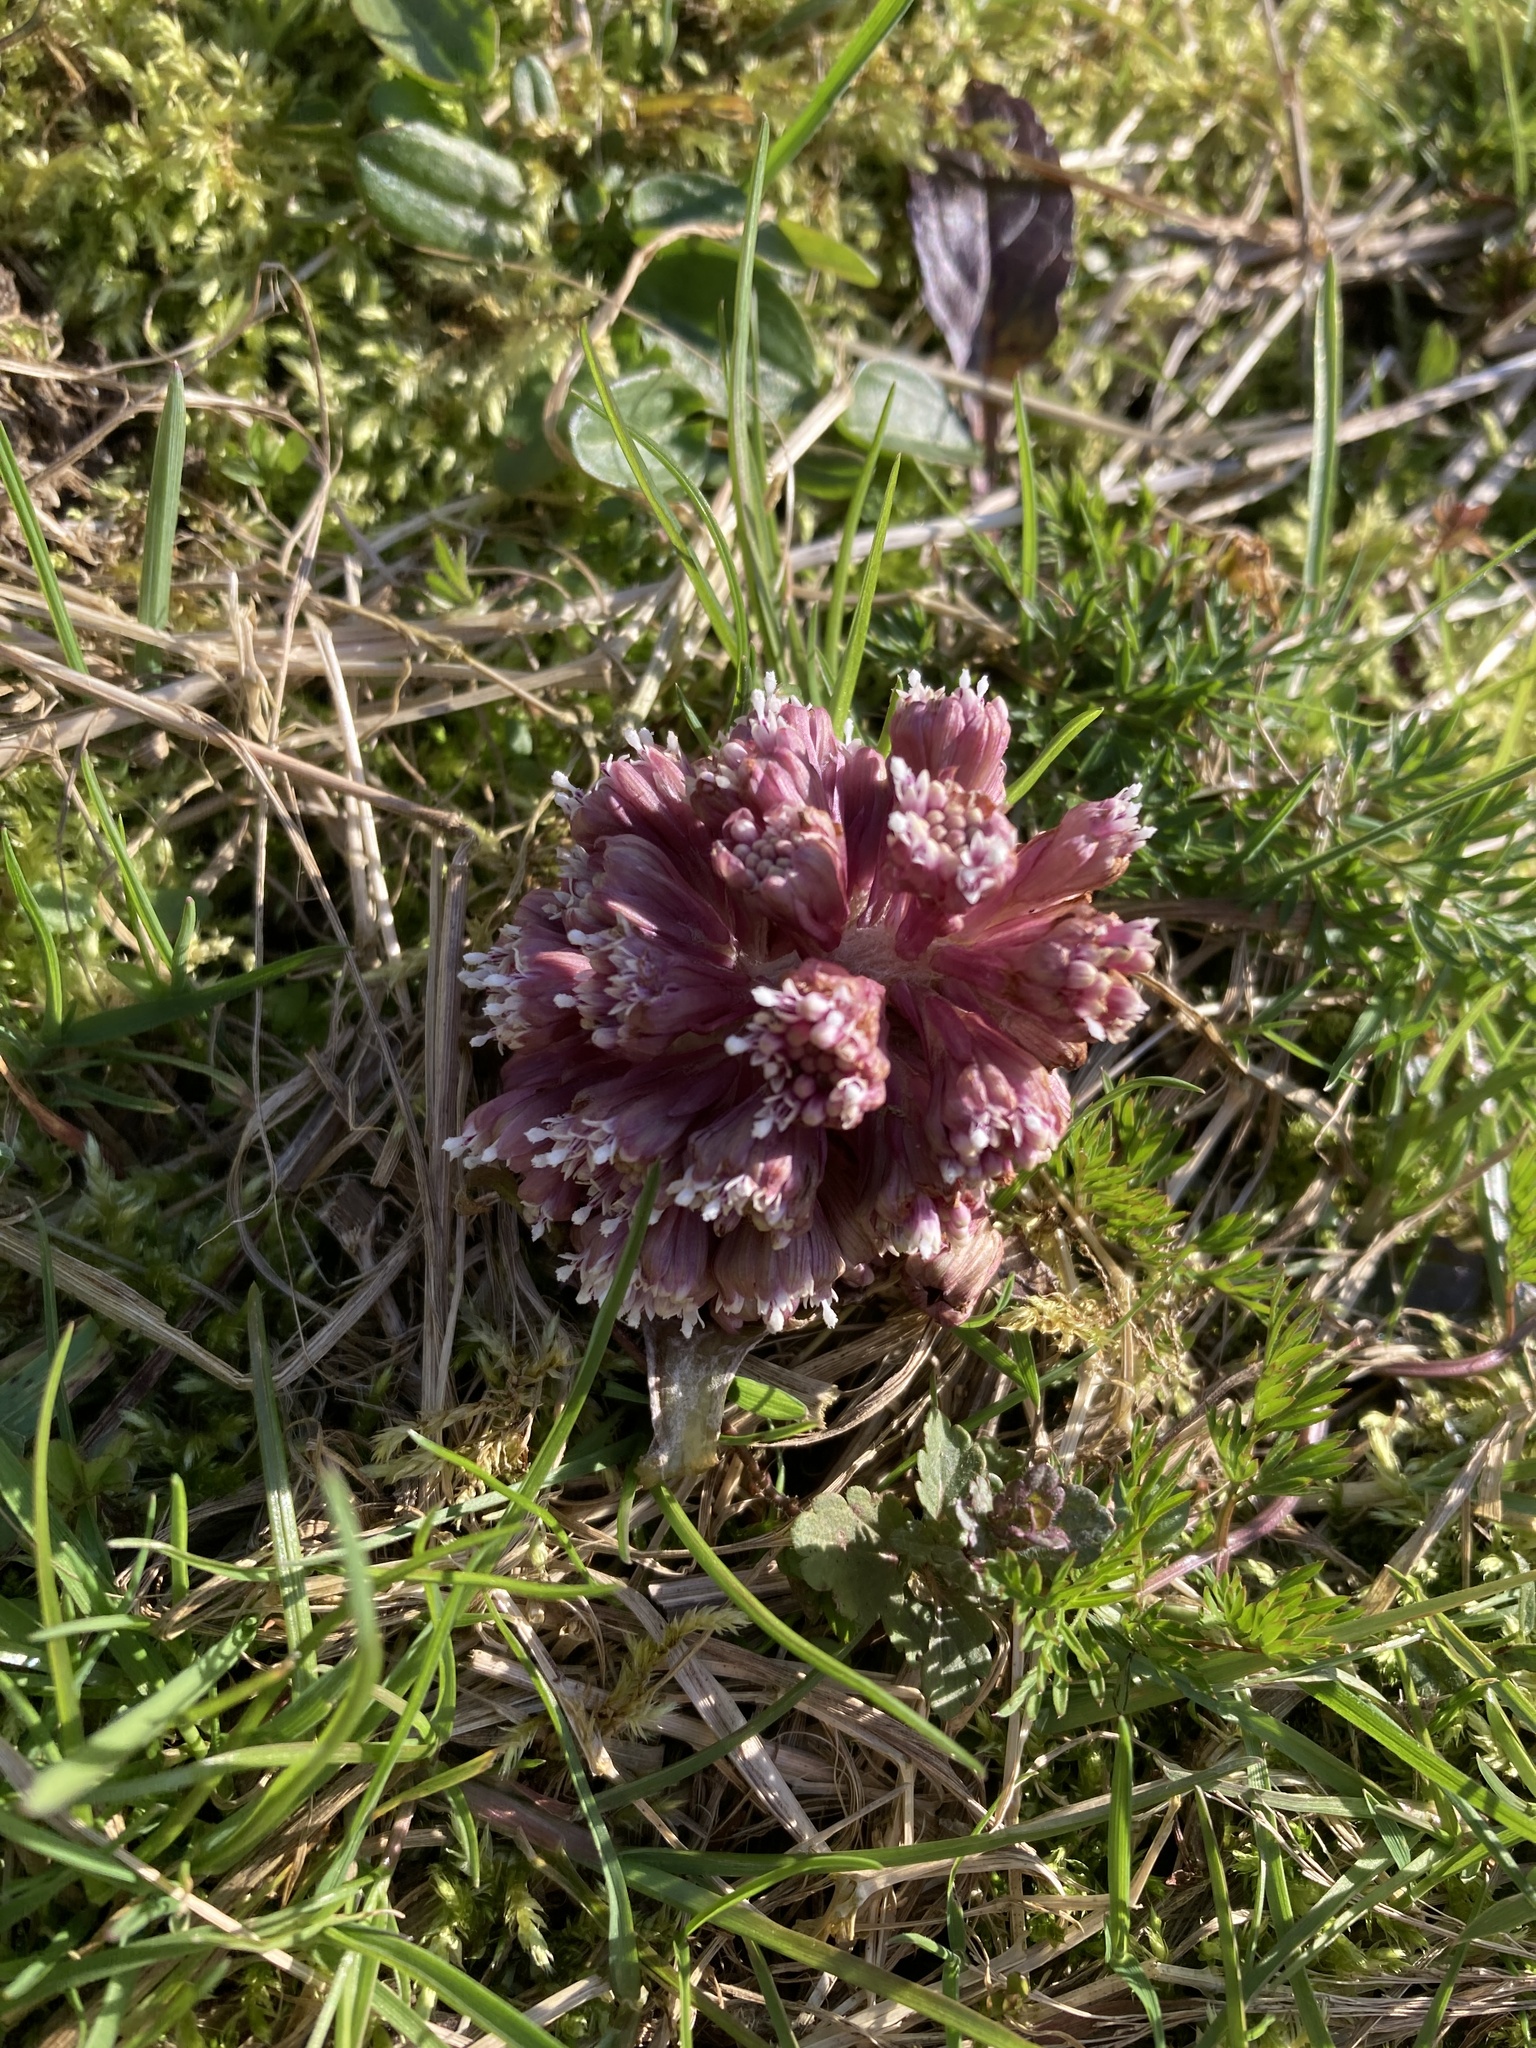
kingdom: Plantae
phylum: Tracheophyta
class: Magnoliopsida
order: Asterales
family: Asteraceae
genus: Petasites
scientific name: Petasites hybridus
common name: Butterbur
